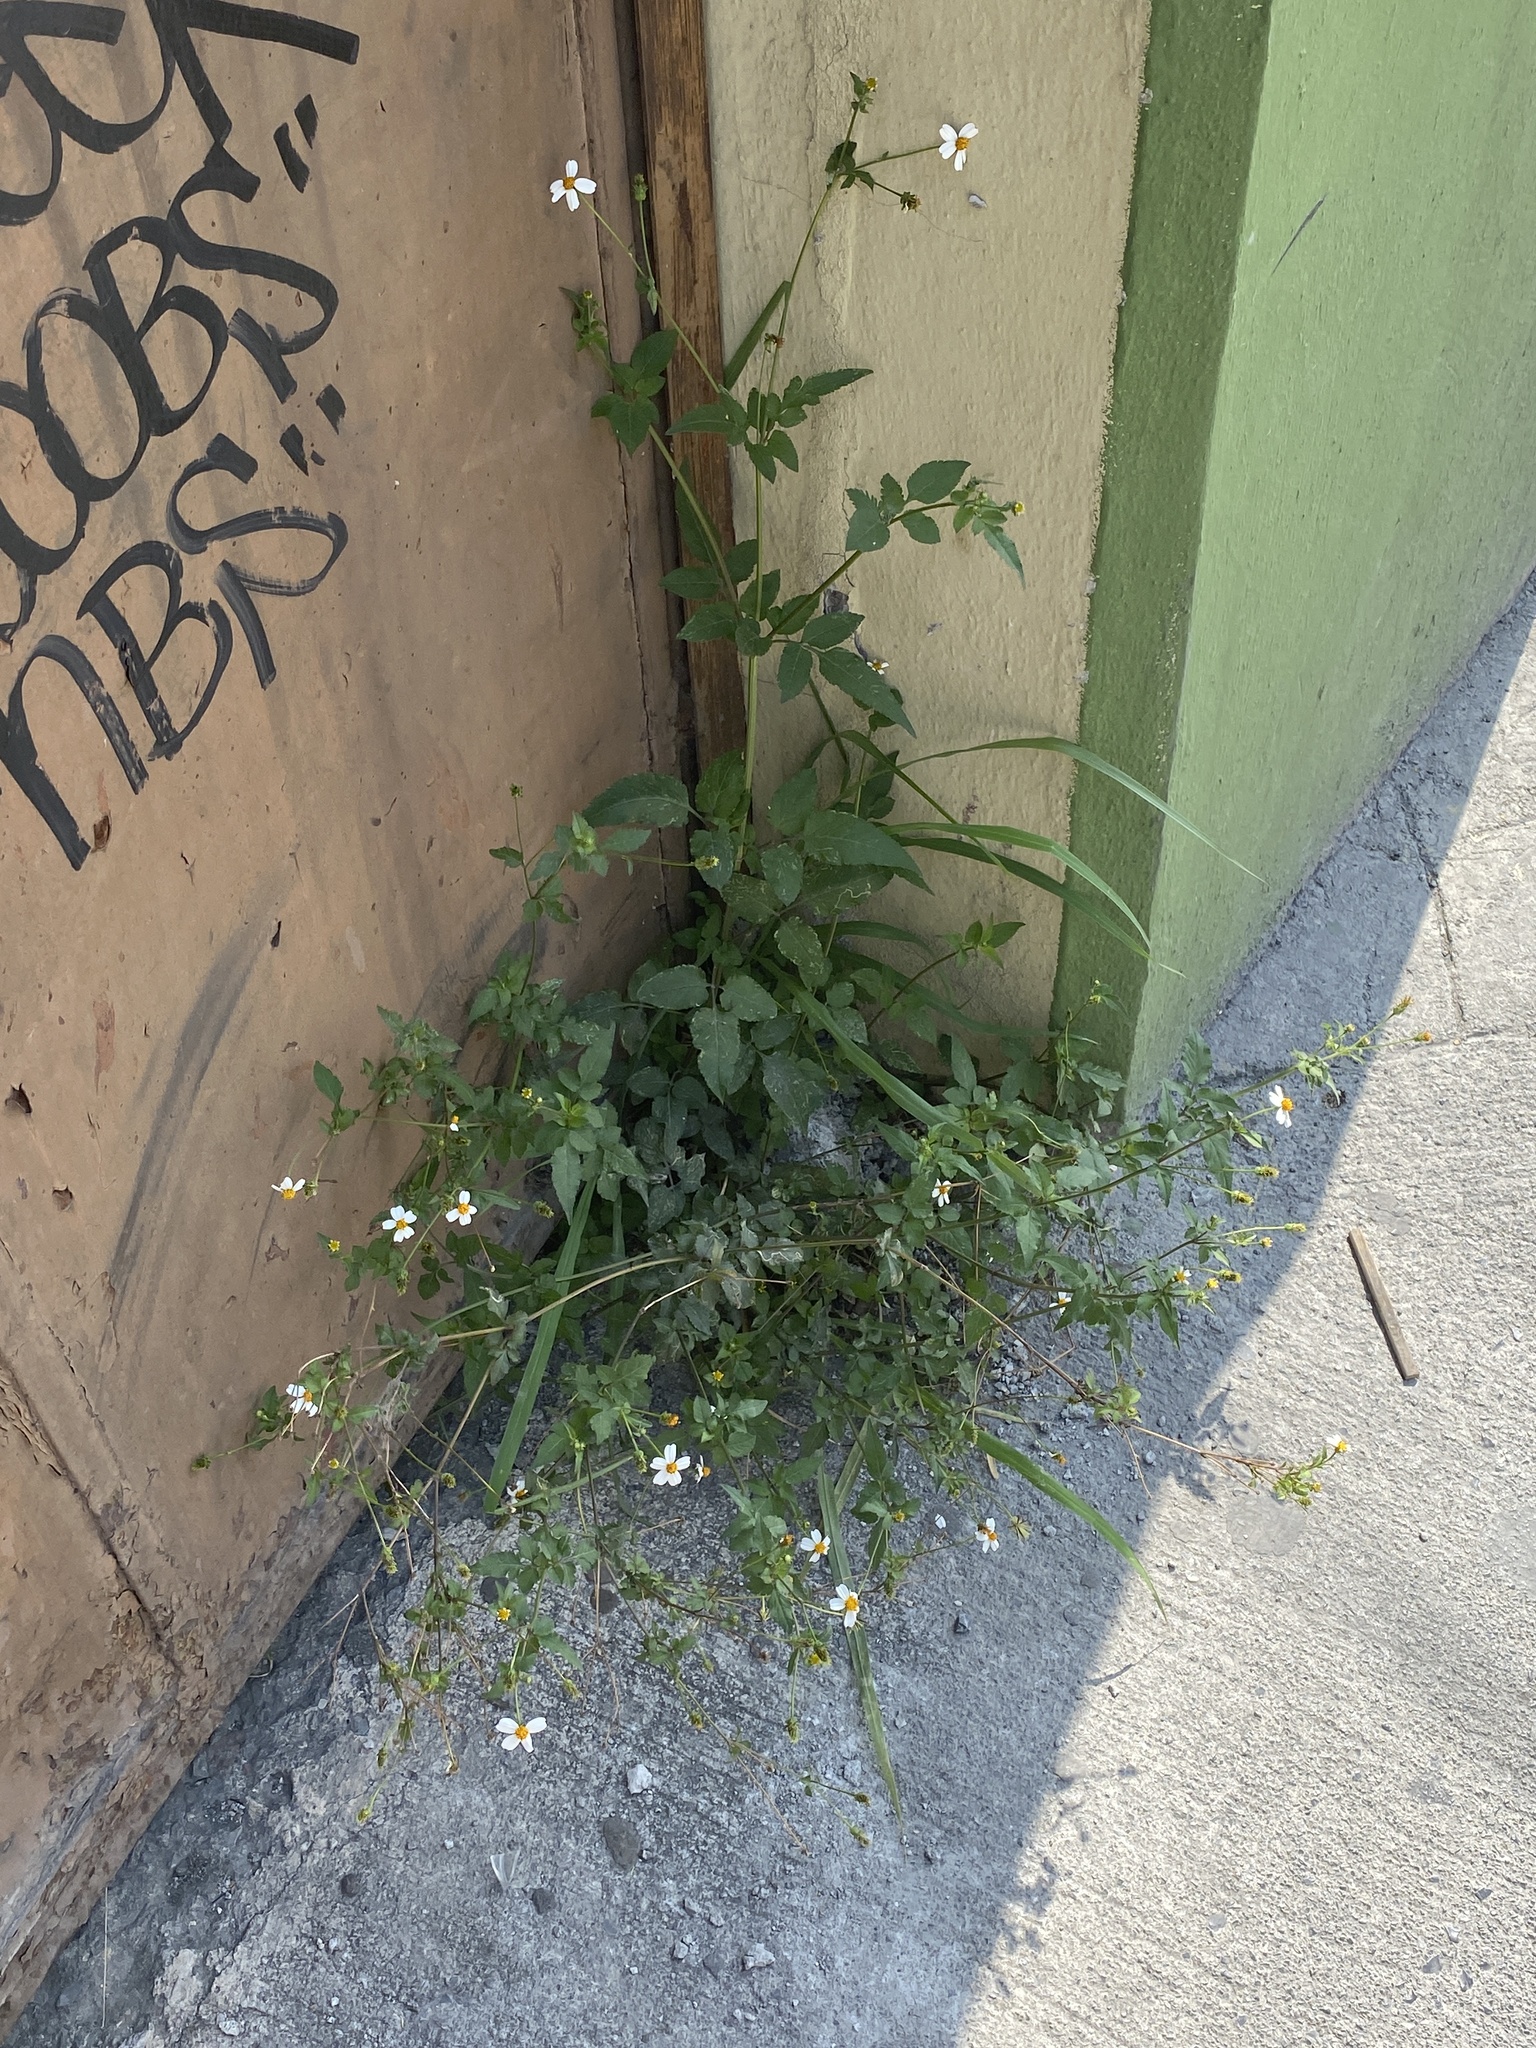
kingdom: Plantae
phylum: Tracheophyta
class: Magnoliopsida
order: Asterales
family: Asteraceae
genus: Bidens
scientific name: Bidens alba
